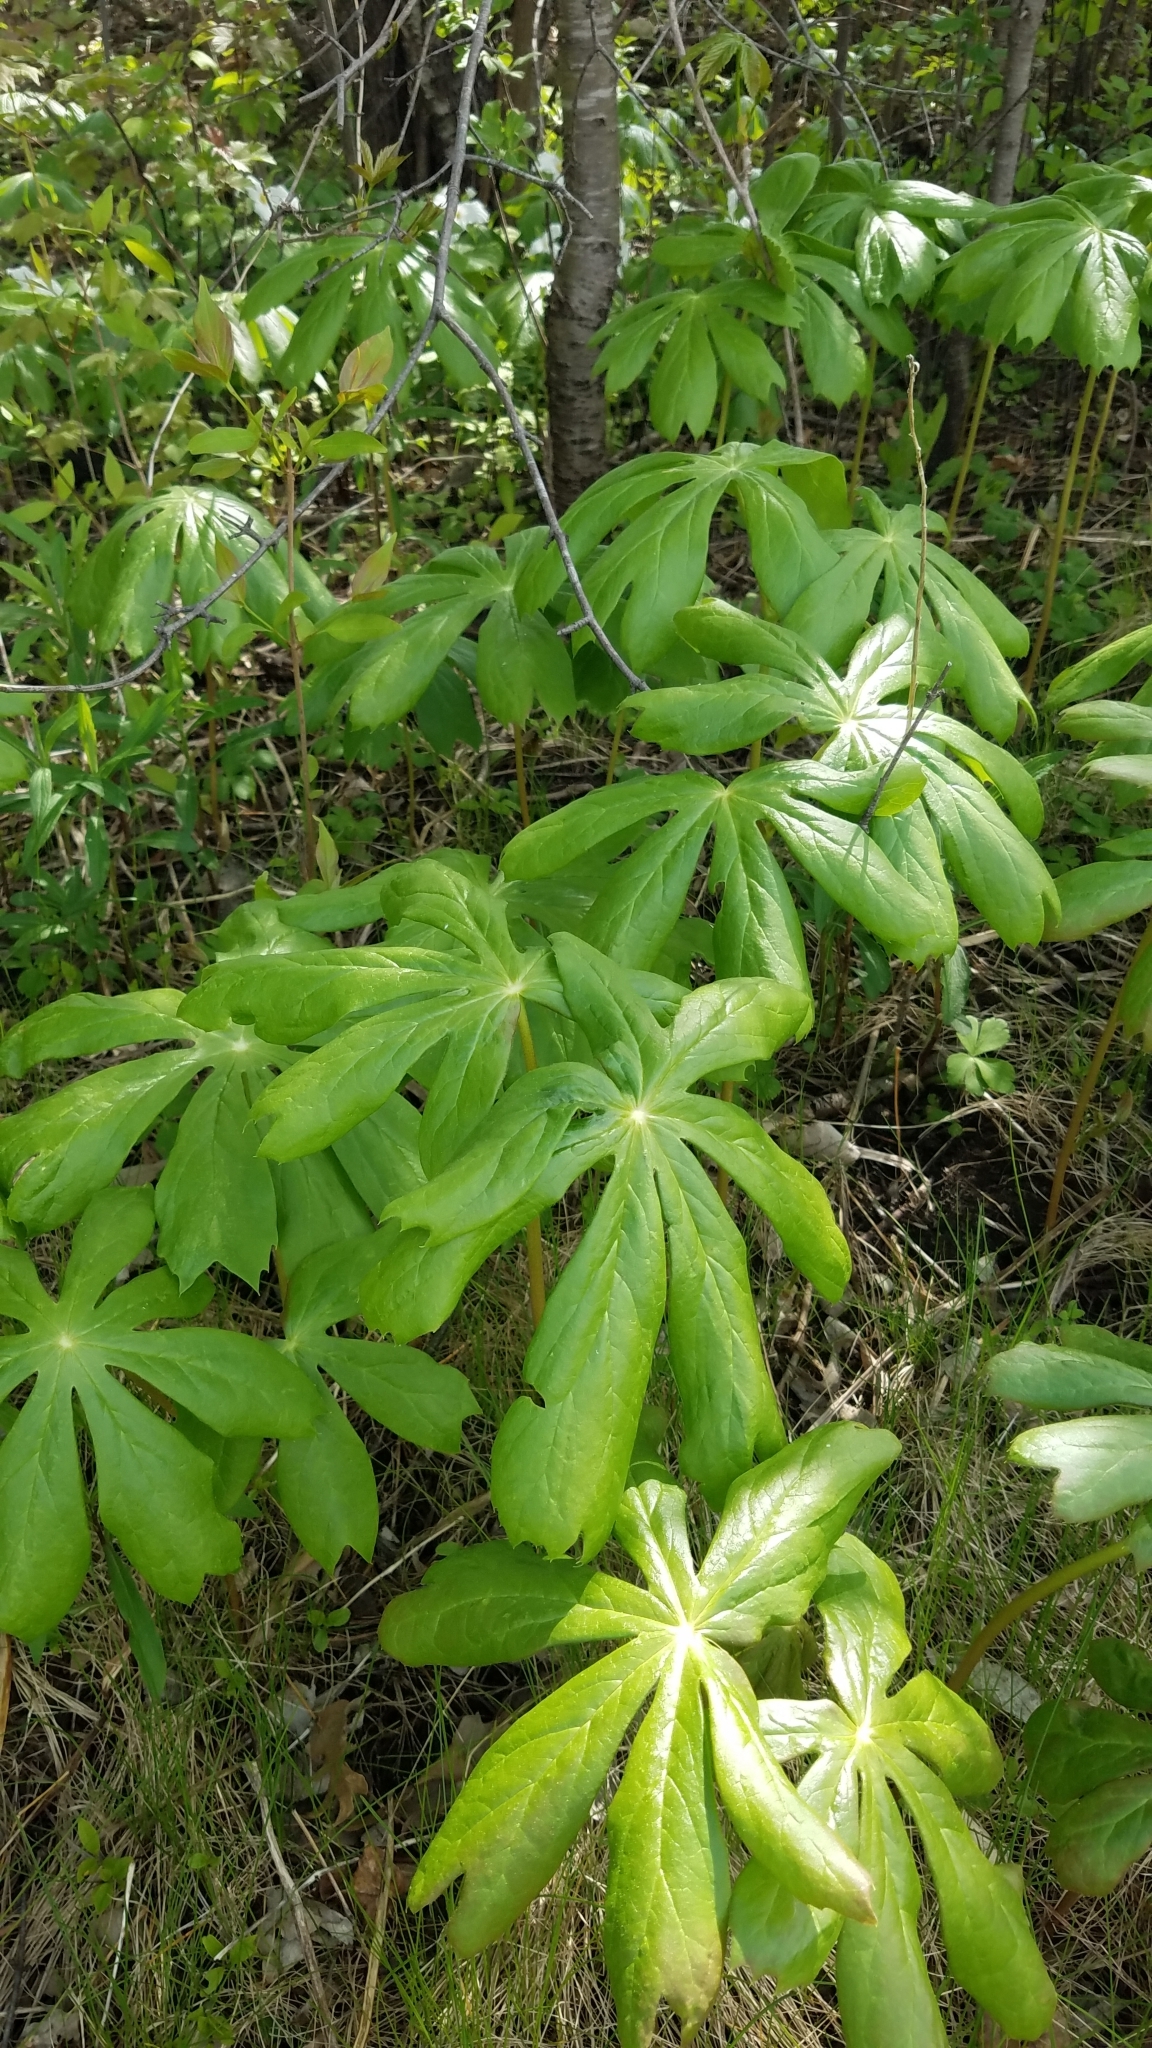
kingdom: Plantae
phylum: Tracheophyta
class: Magnoliopsida
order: Ranunculales
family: Berberidaceae
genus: Podophyllum
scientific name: Podophyllum peltatum
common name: Wild mandrake
